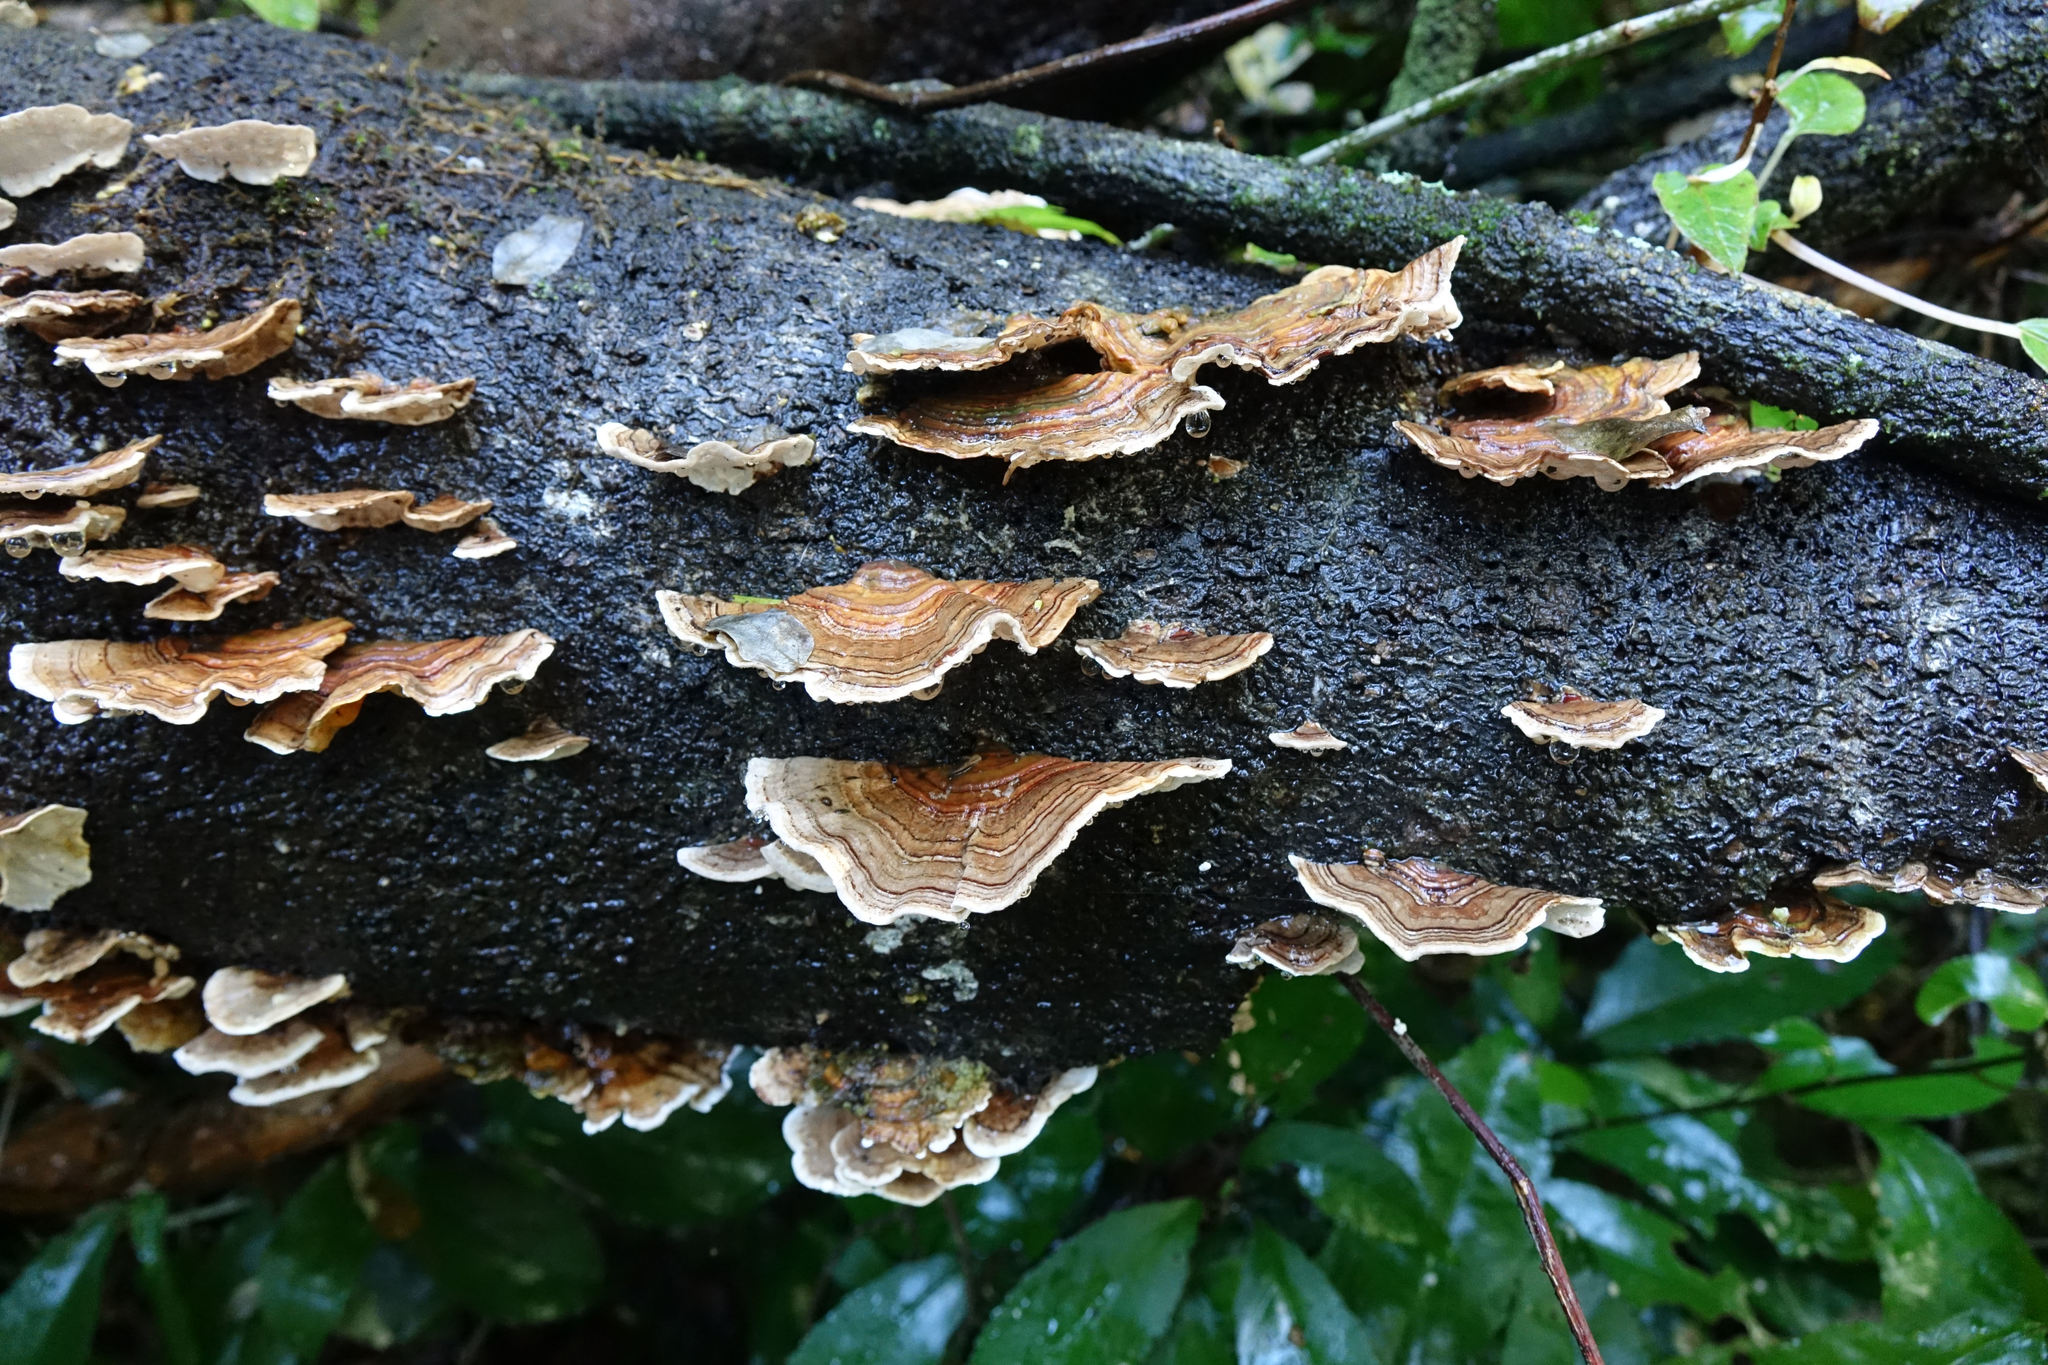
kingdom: Fungi
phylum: Basidiomycota
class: Agaricomycetes
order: Polyporales
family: Polyporaceae
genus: Trametes
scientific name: Trametes versicolor
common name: Turkeytail
